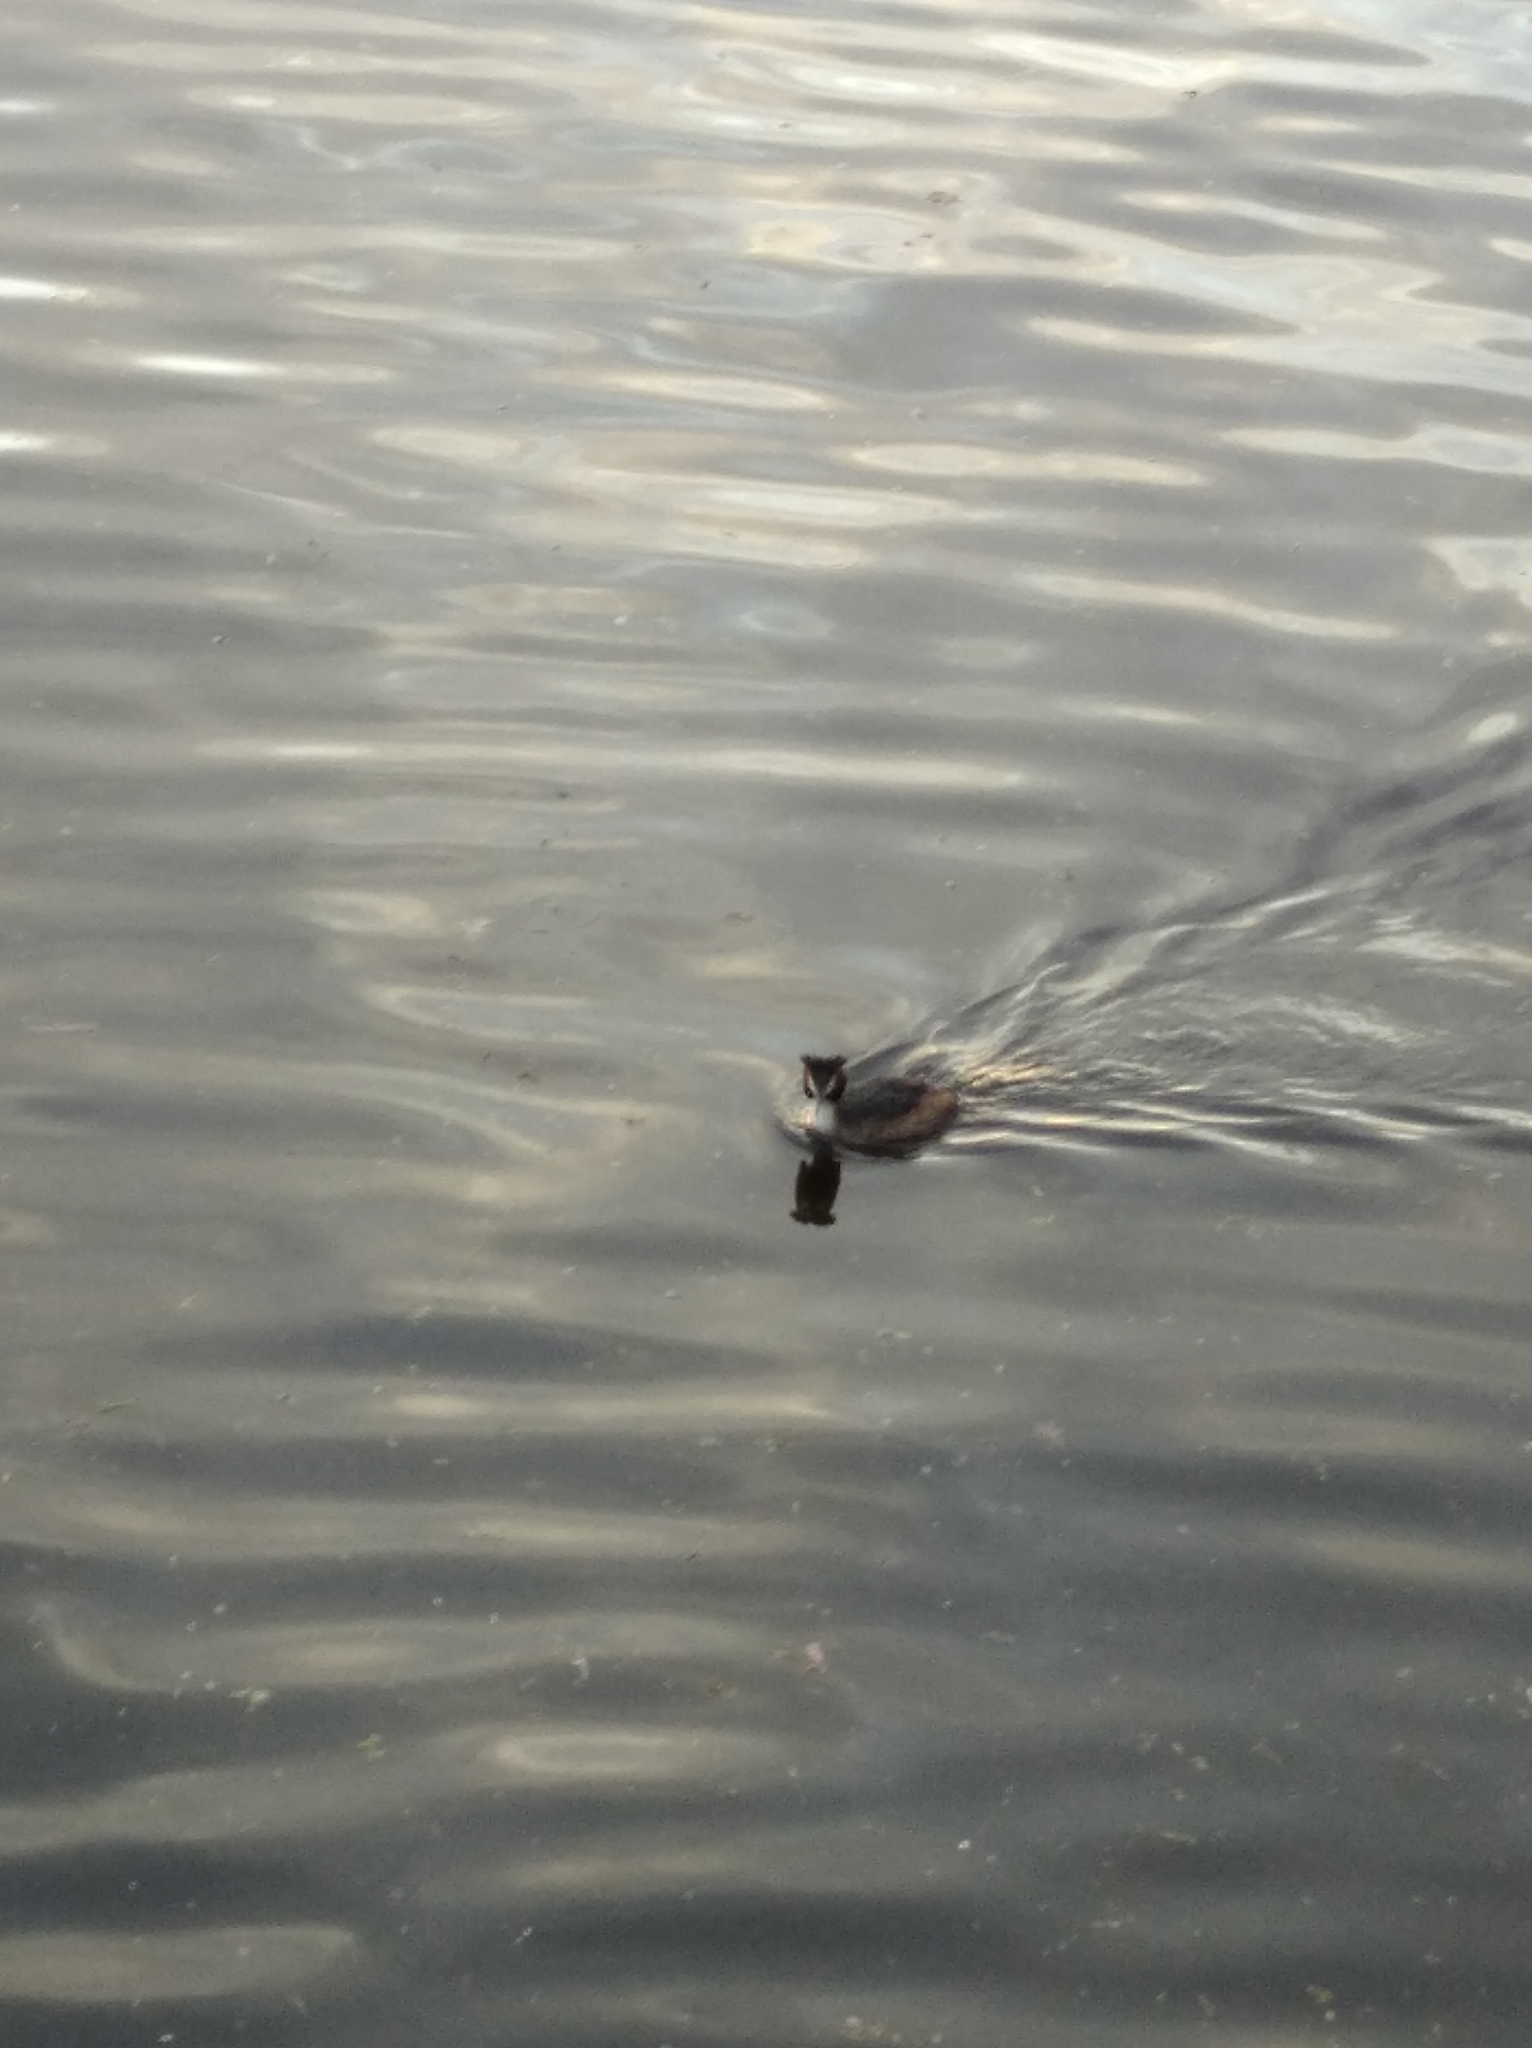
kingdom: Animalia
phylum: Chordata
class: Aves
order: Podicipediformes
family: Podicipedidae
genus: Podiceps
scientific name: Podiceps cristatus
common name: Great crested grebe
